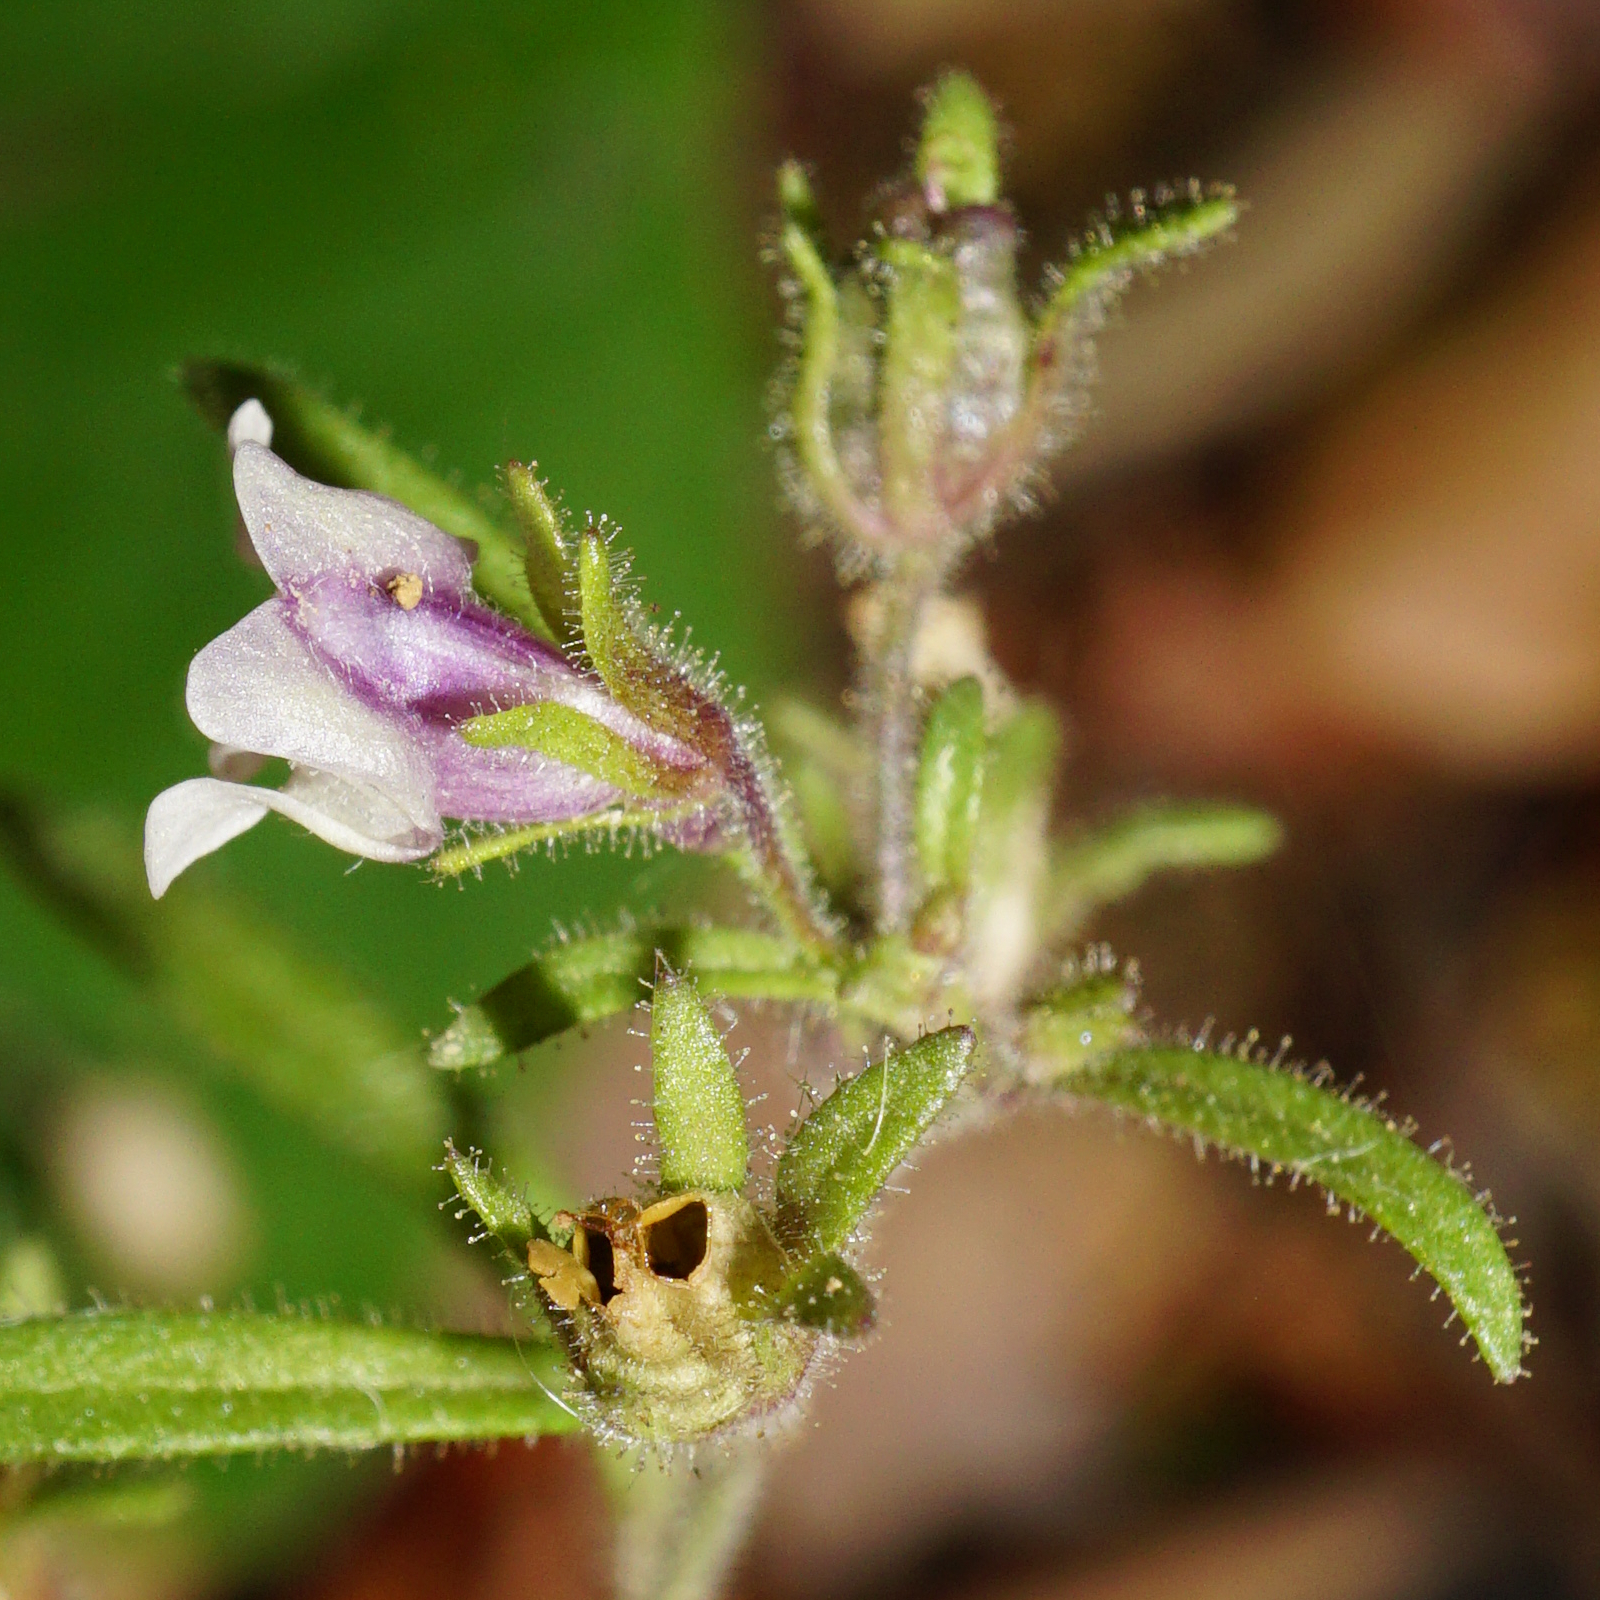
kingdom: Plantae
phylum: Tracheophyta
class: Magnoliopsida
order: Lamiales
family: Plantaginaceae
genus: Chaenorhinum
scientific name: Chaenorhinum minus
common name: Dwarf snapdragon
